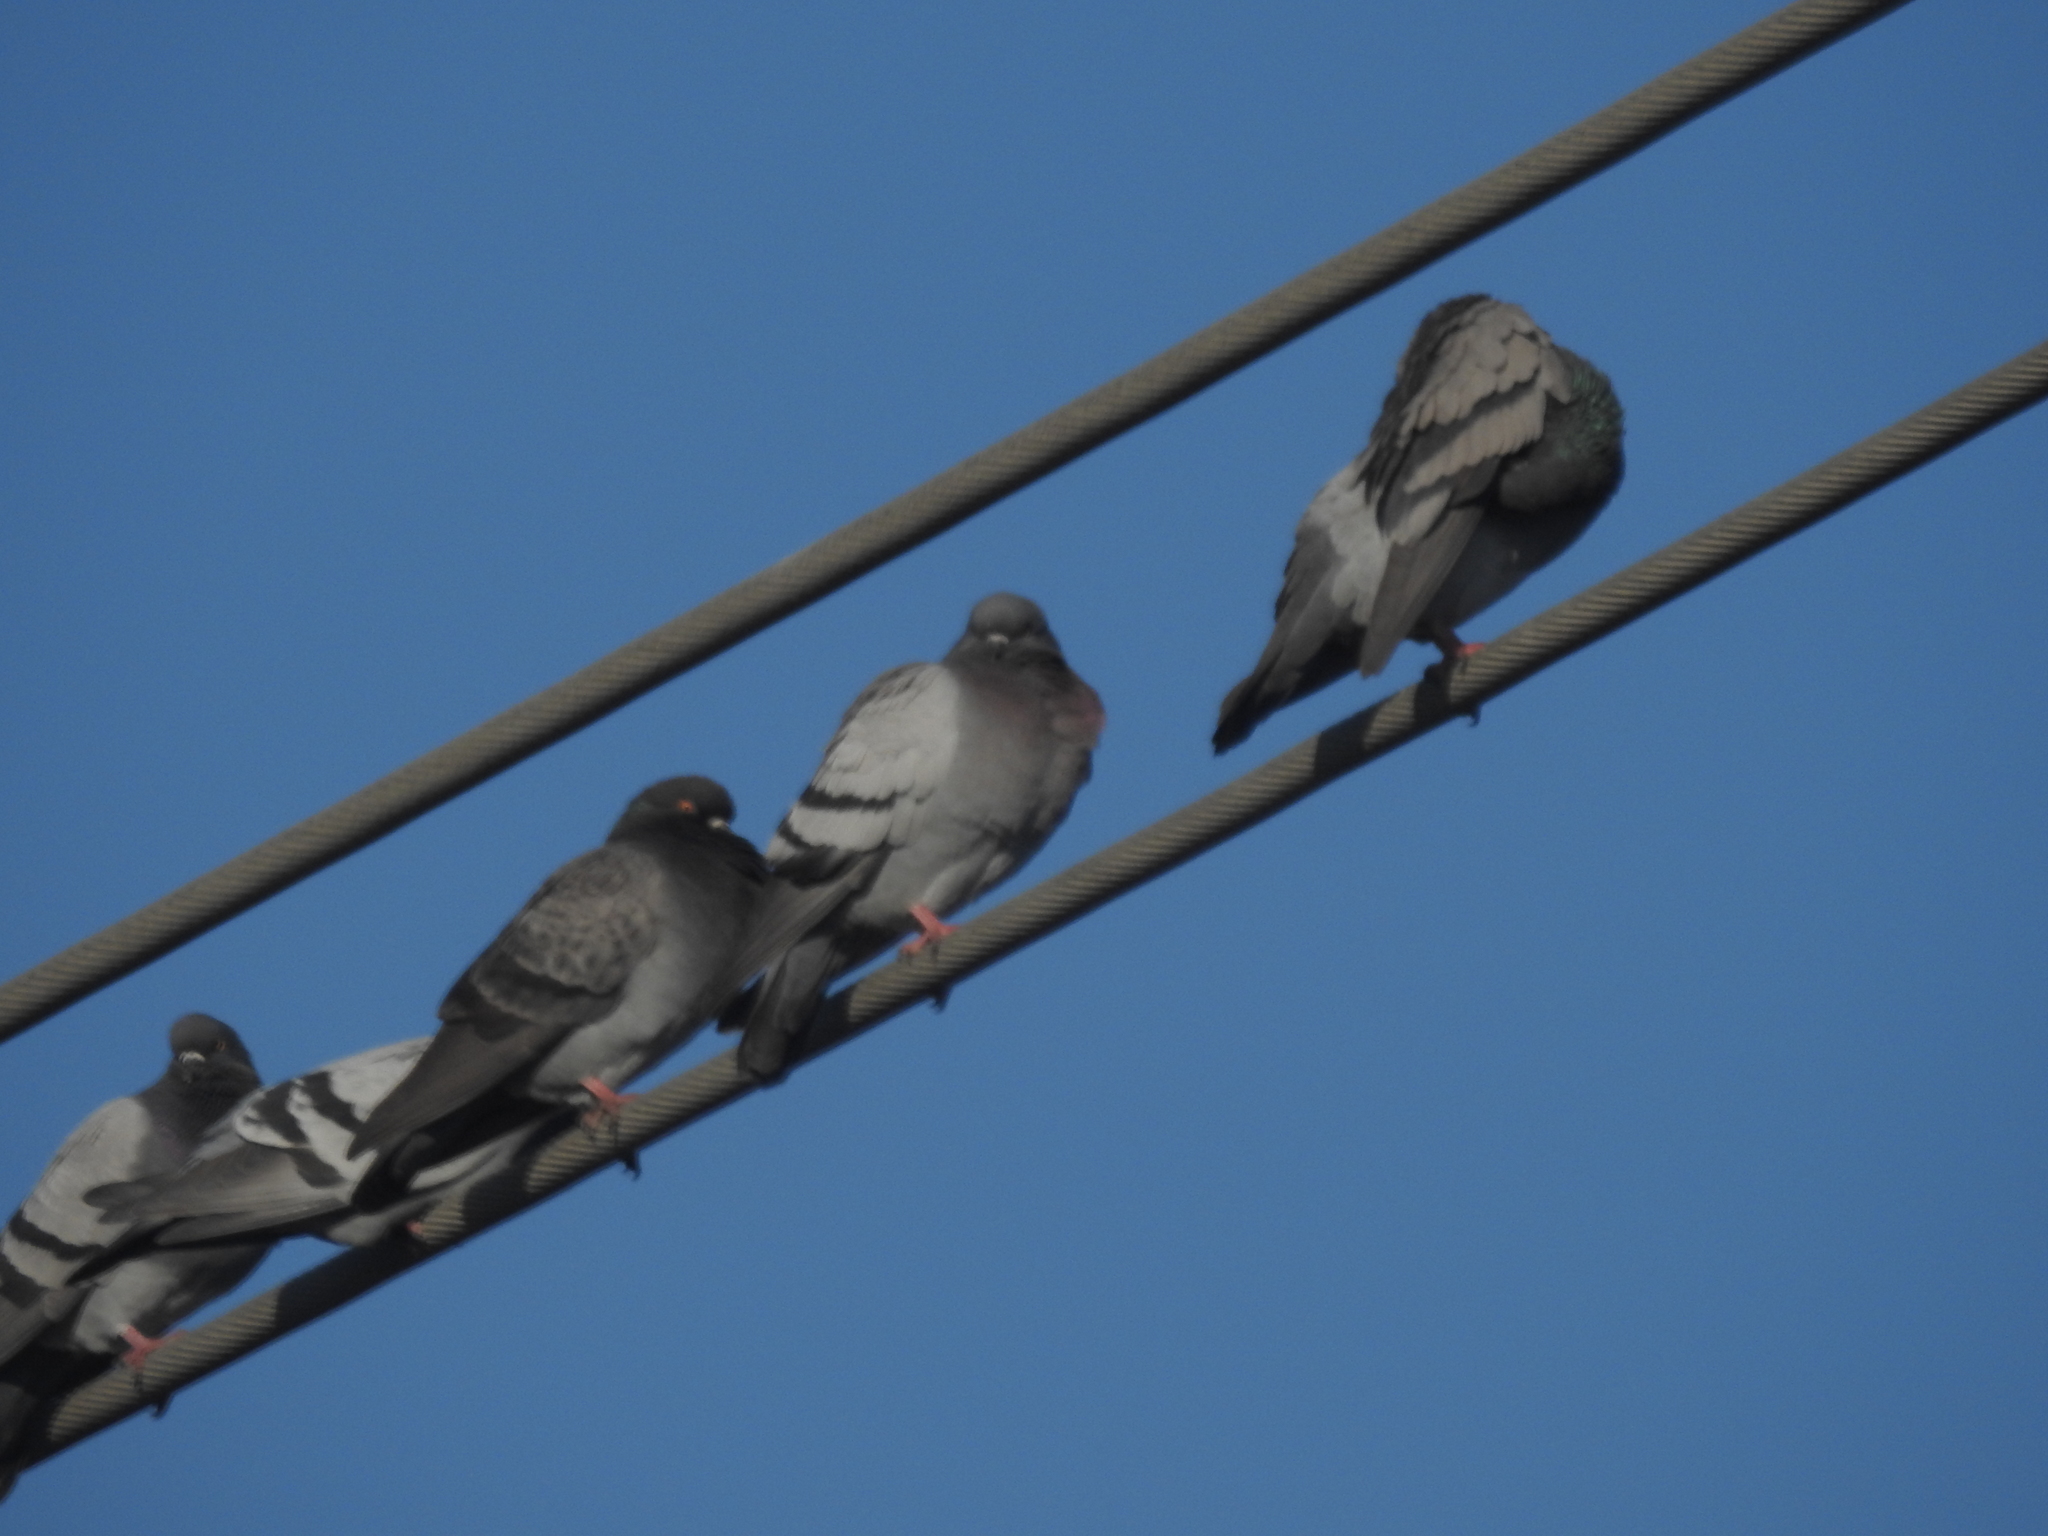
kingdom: Animalia
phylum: Chordata
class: Aves
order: Columbiformes
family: Columbidae
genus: Columba
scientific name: Columba livia
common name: Rock pigeon
